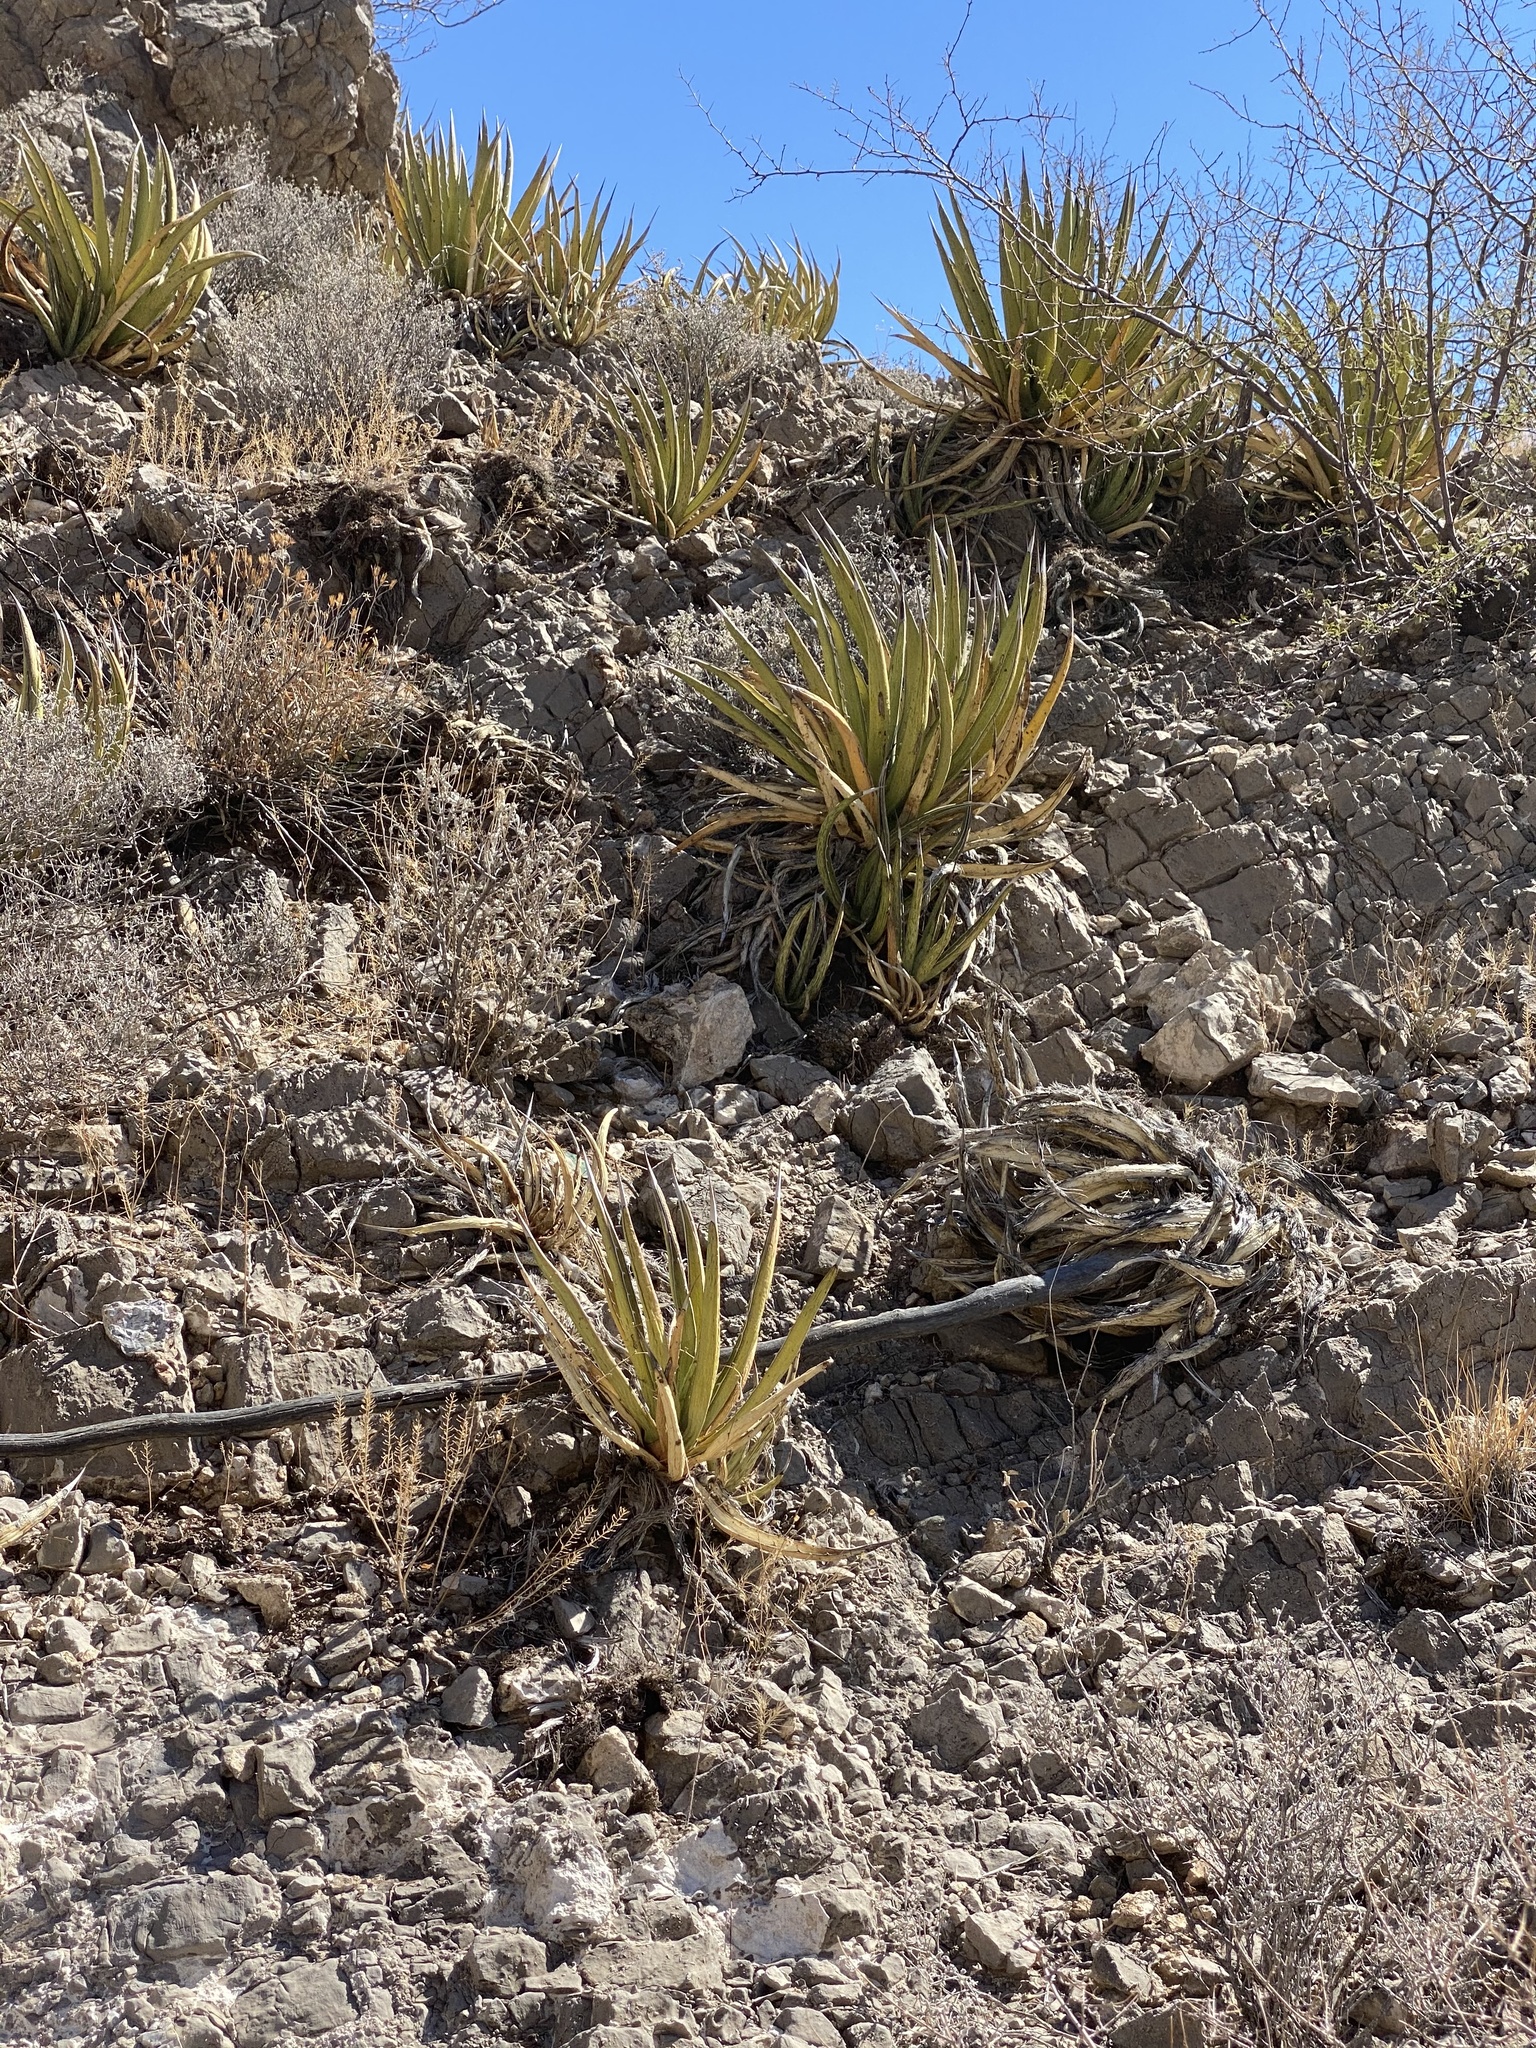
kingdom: Plantae
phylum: Tracheophyta
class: Liliopsida
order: Asparagales
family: Asparagaceae
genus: Agave
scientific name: Agave lechuguilla
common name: Lecheguilla agave
